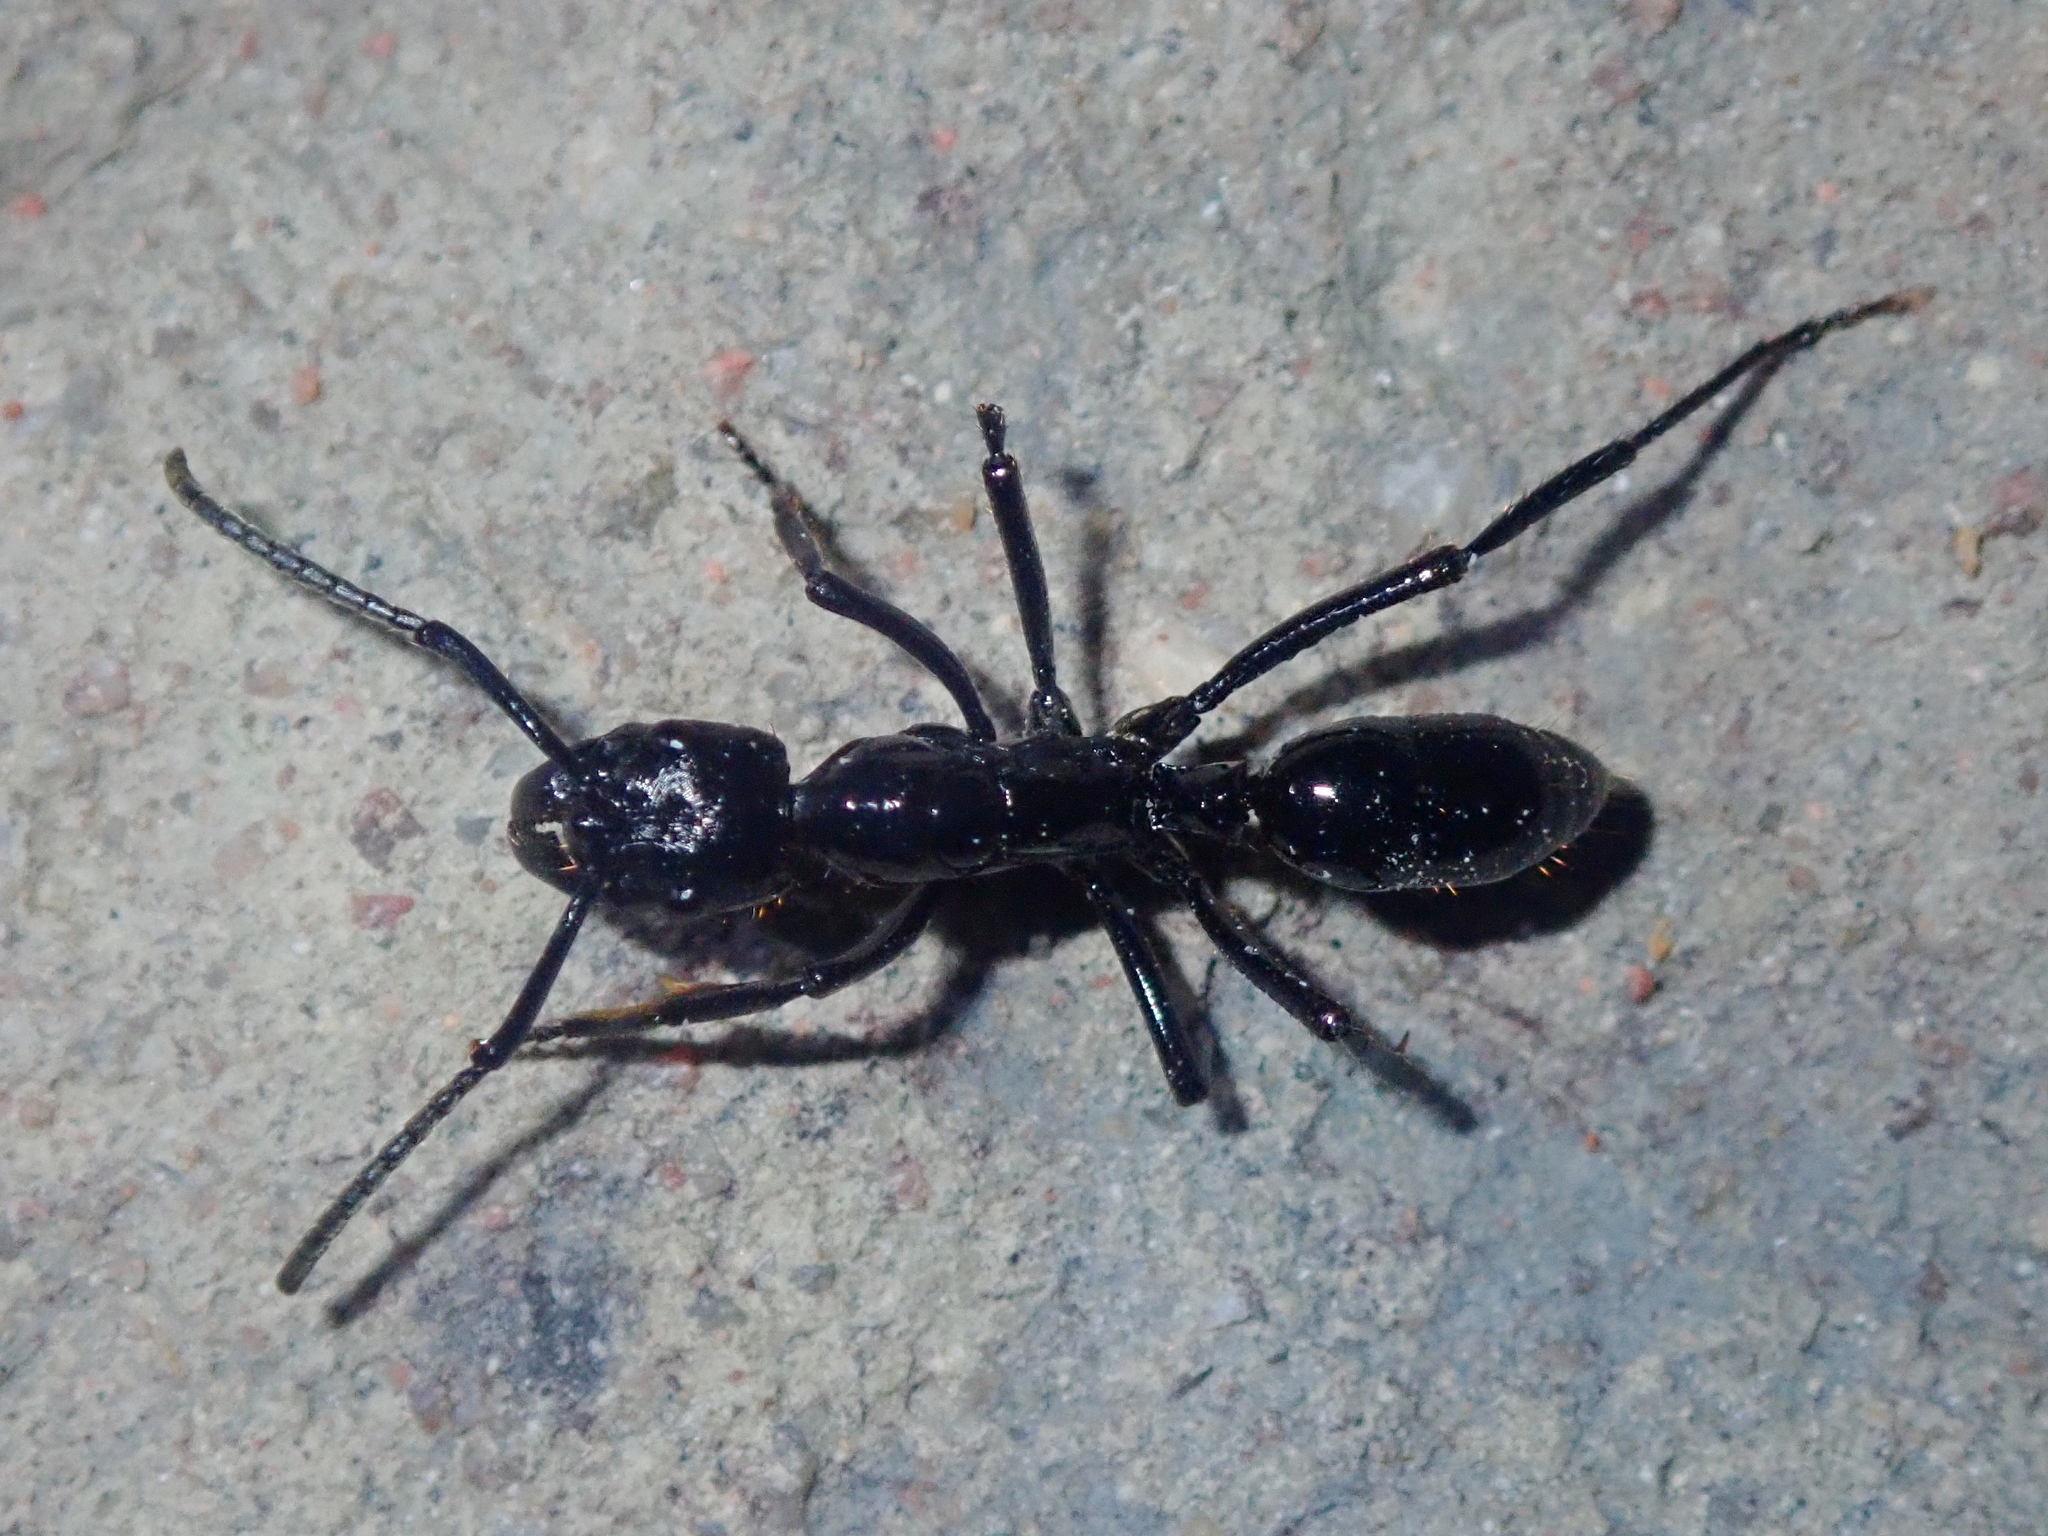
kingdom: Animalia
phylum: Arthropoda
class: Insecta
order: Hymenoptera
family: Formicidae
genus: Pachycondyla
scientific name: Pachycondyla commutata
